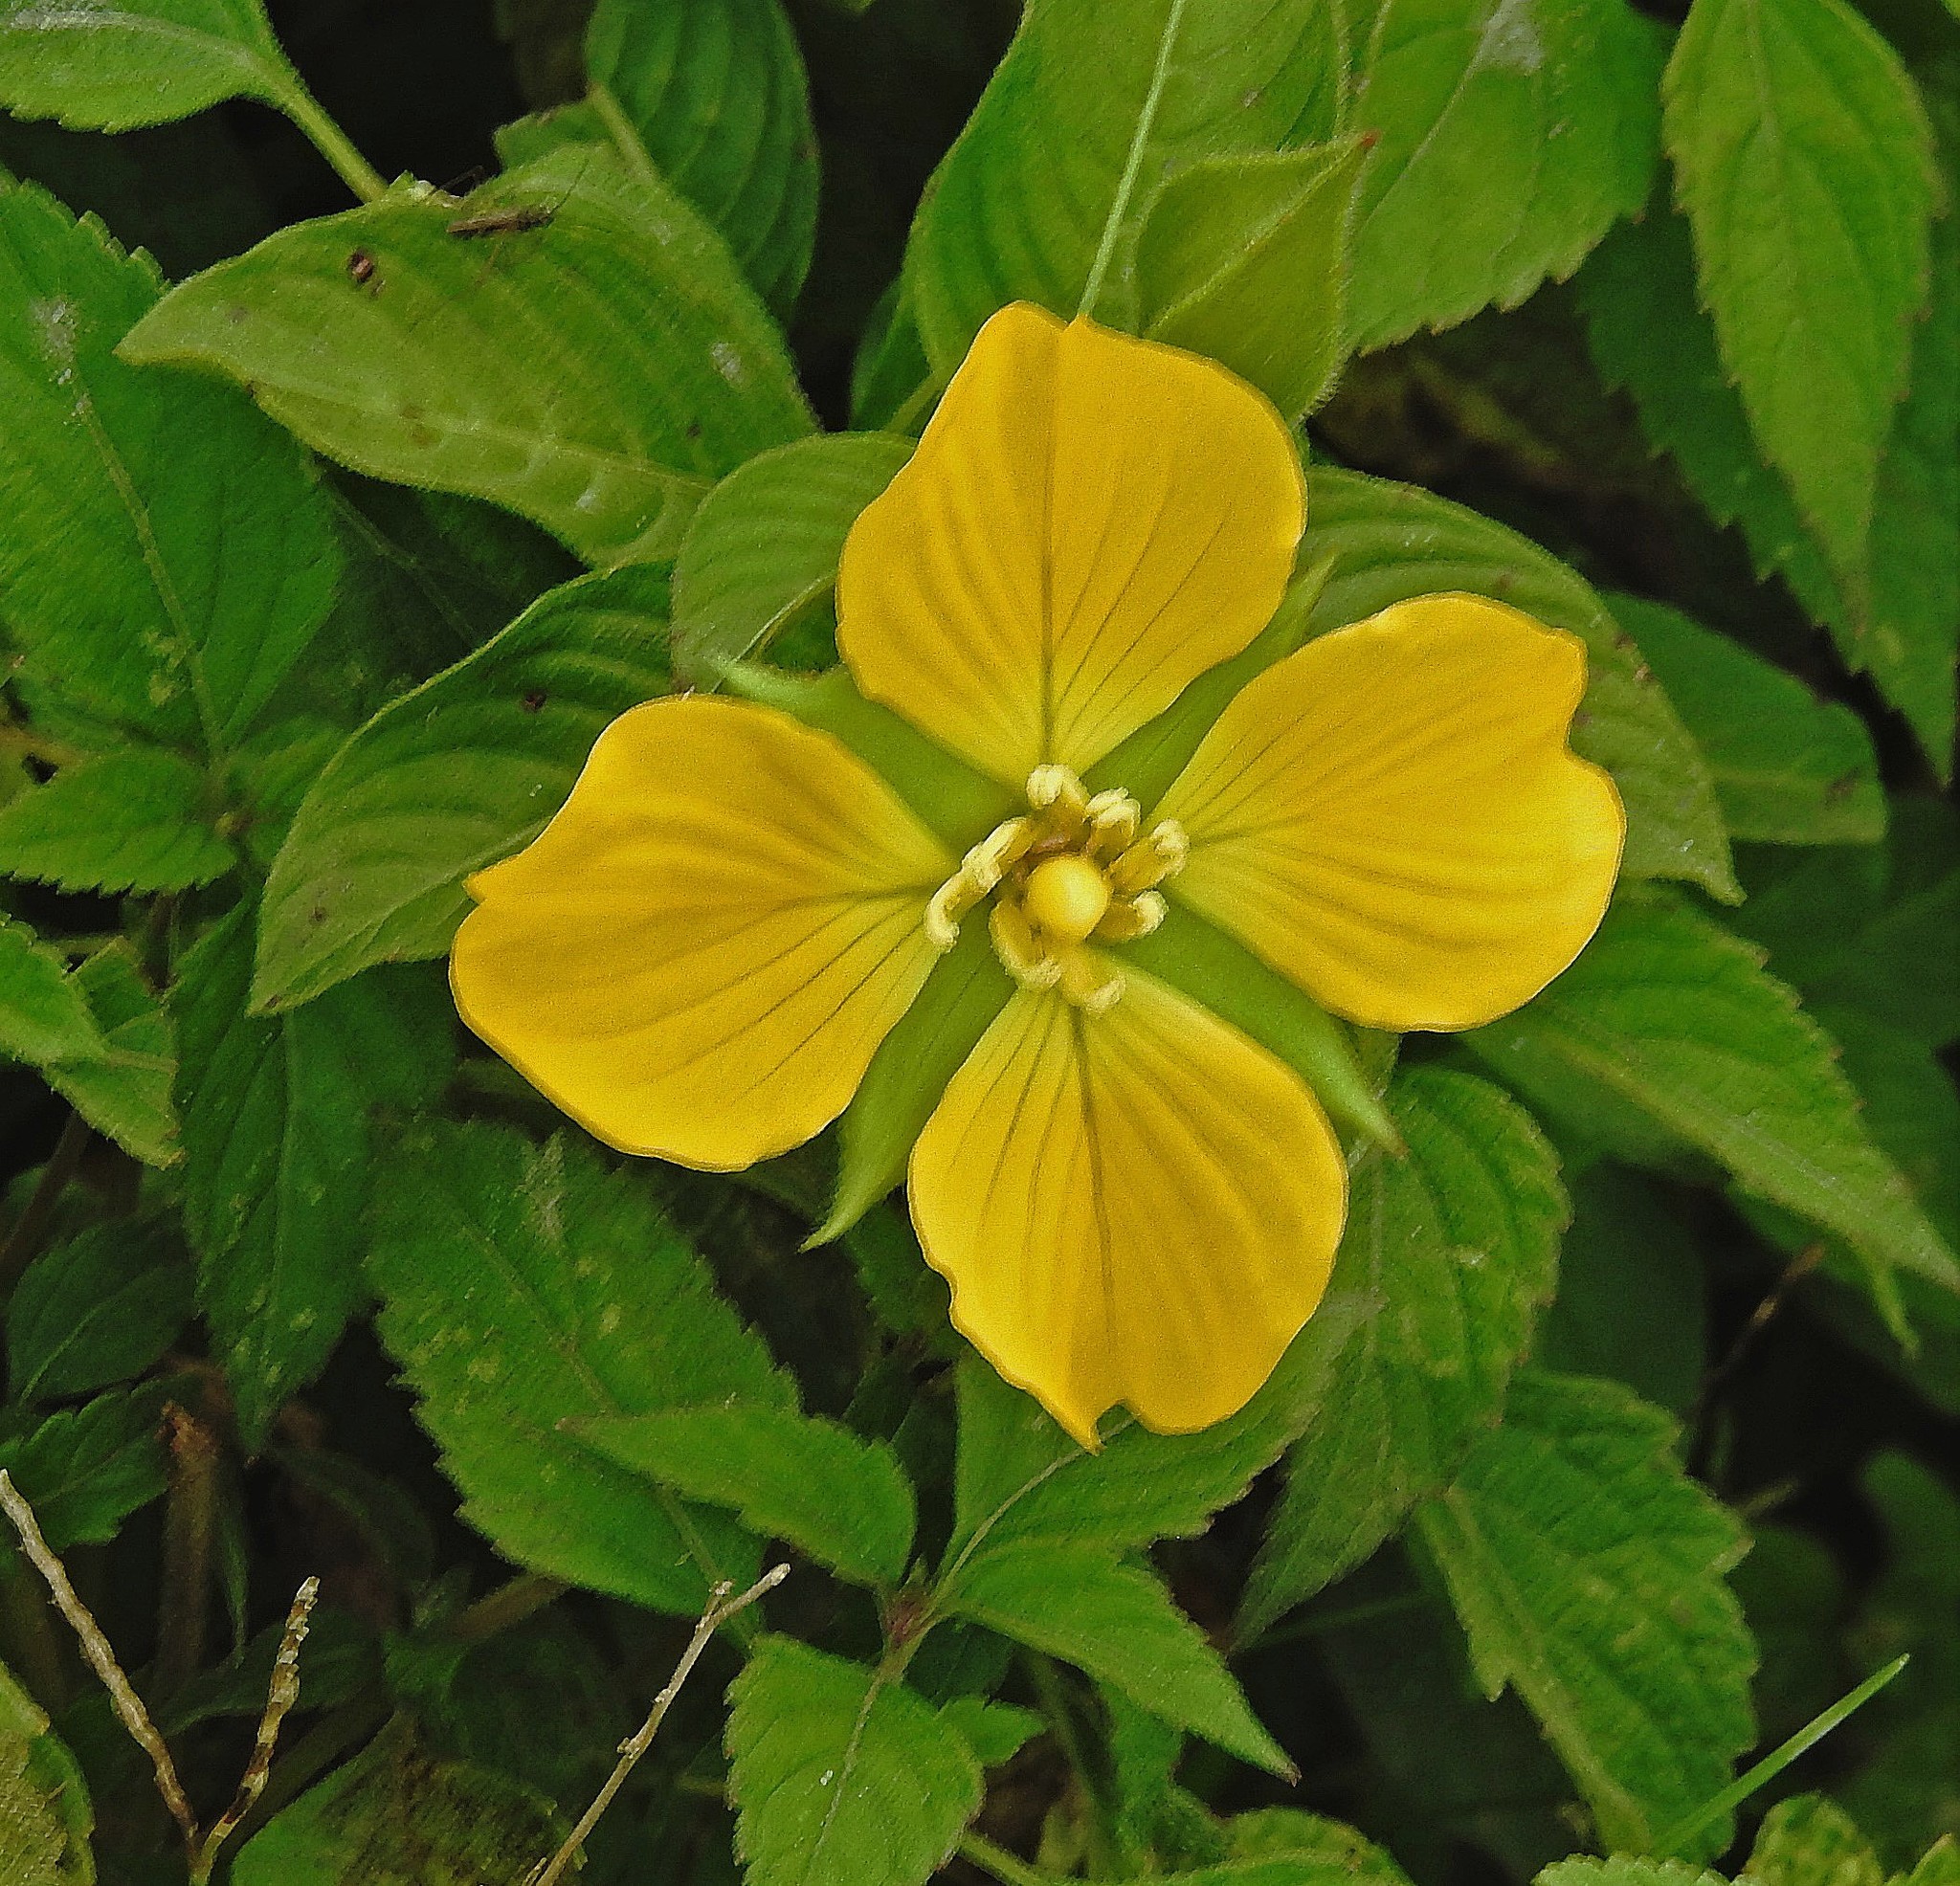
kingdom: Plantae
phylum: Tracheophyta
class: Magnoliopsida
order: Myrtales
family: Onagraceae
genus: Ludwigia
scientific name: Ludwigia peruviana
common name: Peruvian primrose-willow
